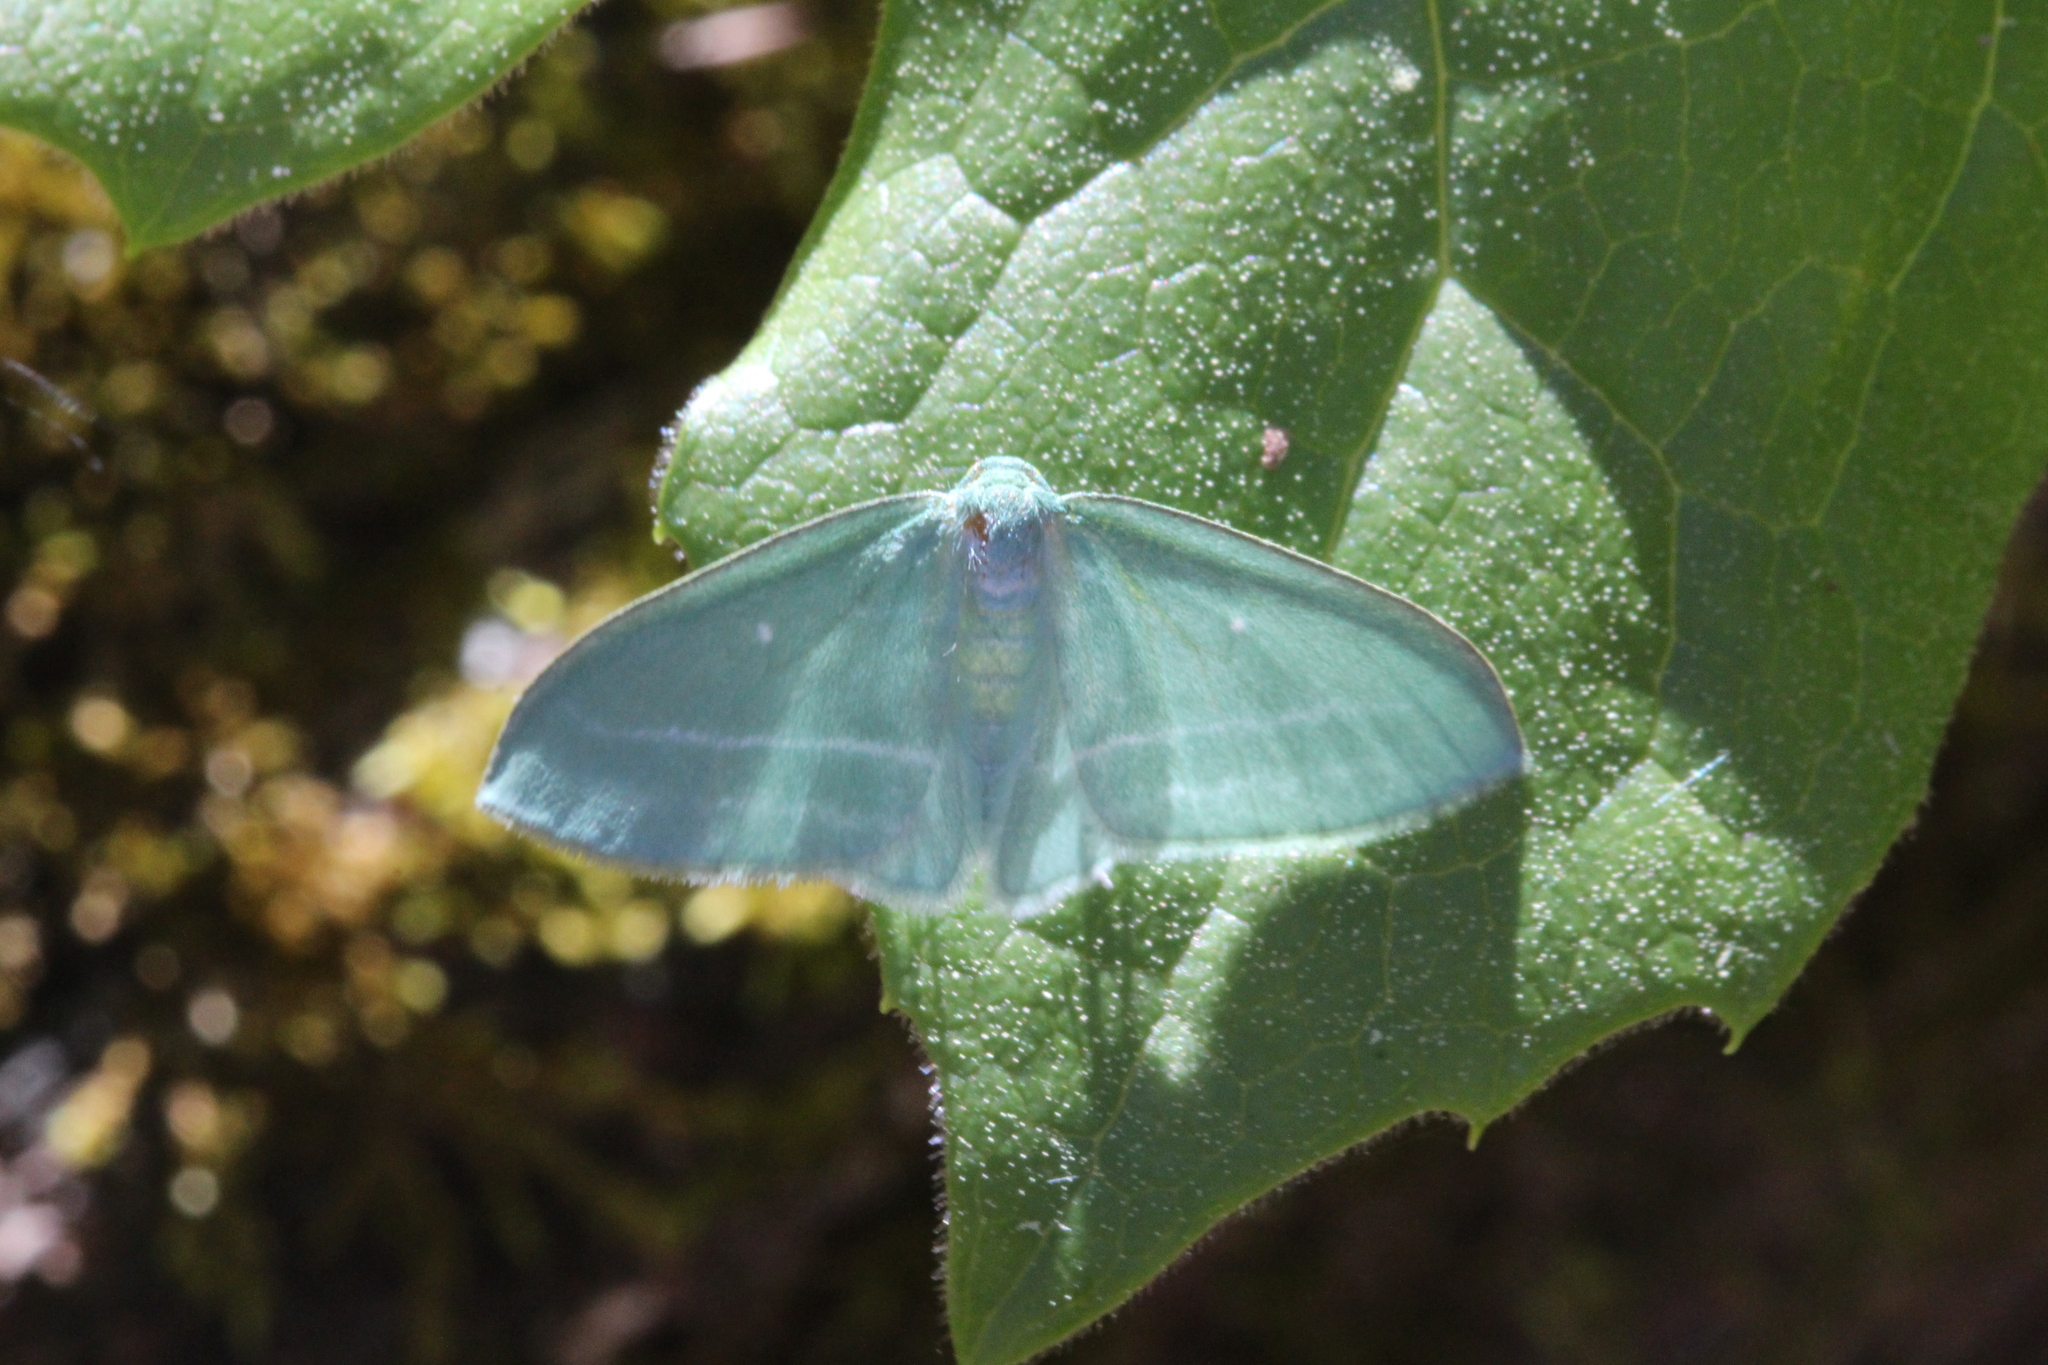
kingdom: Animalia
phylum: Arthropoda
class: Insecta
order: Lepidoptera
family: Geometridae
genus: Dyspteris
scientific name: Dyspteris abortivaria
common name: Bad-wing
